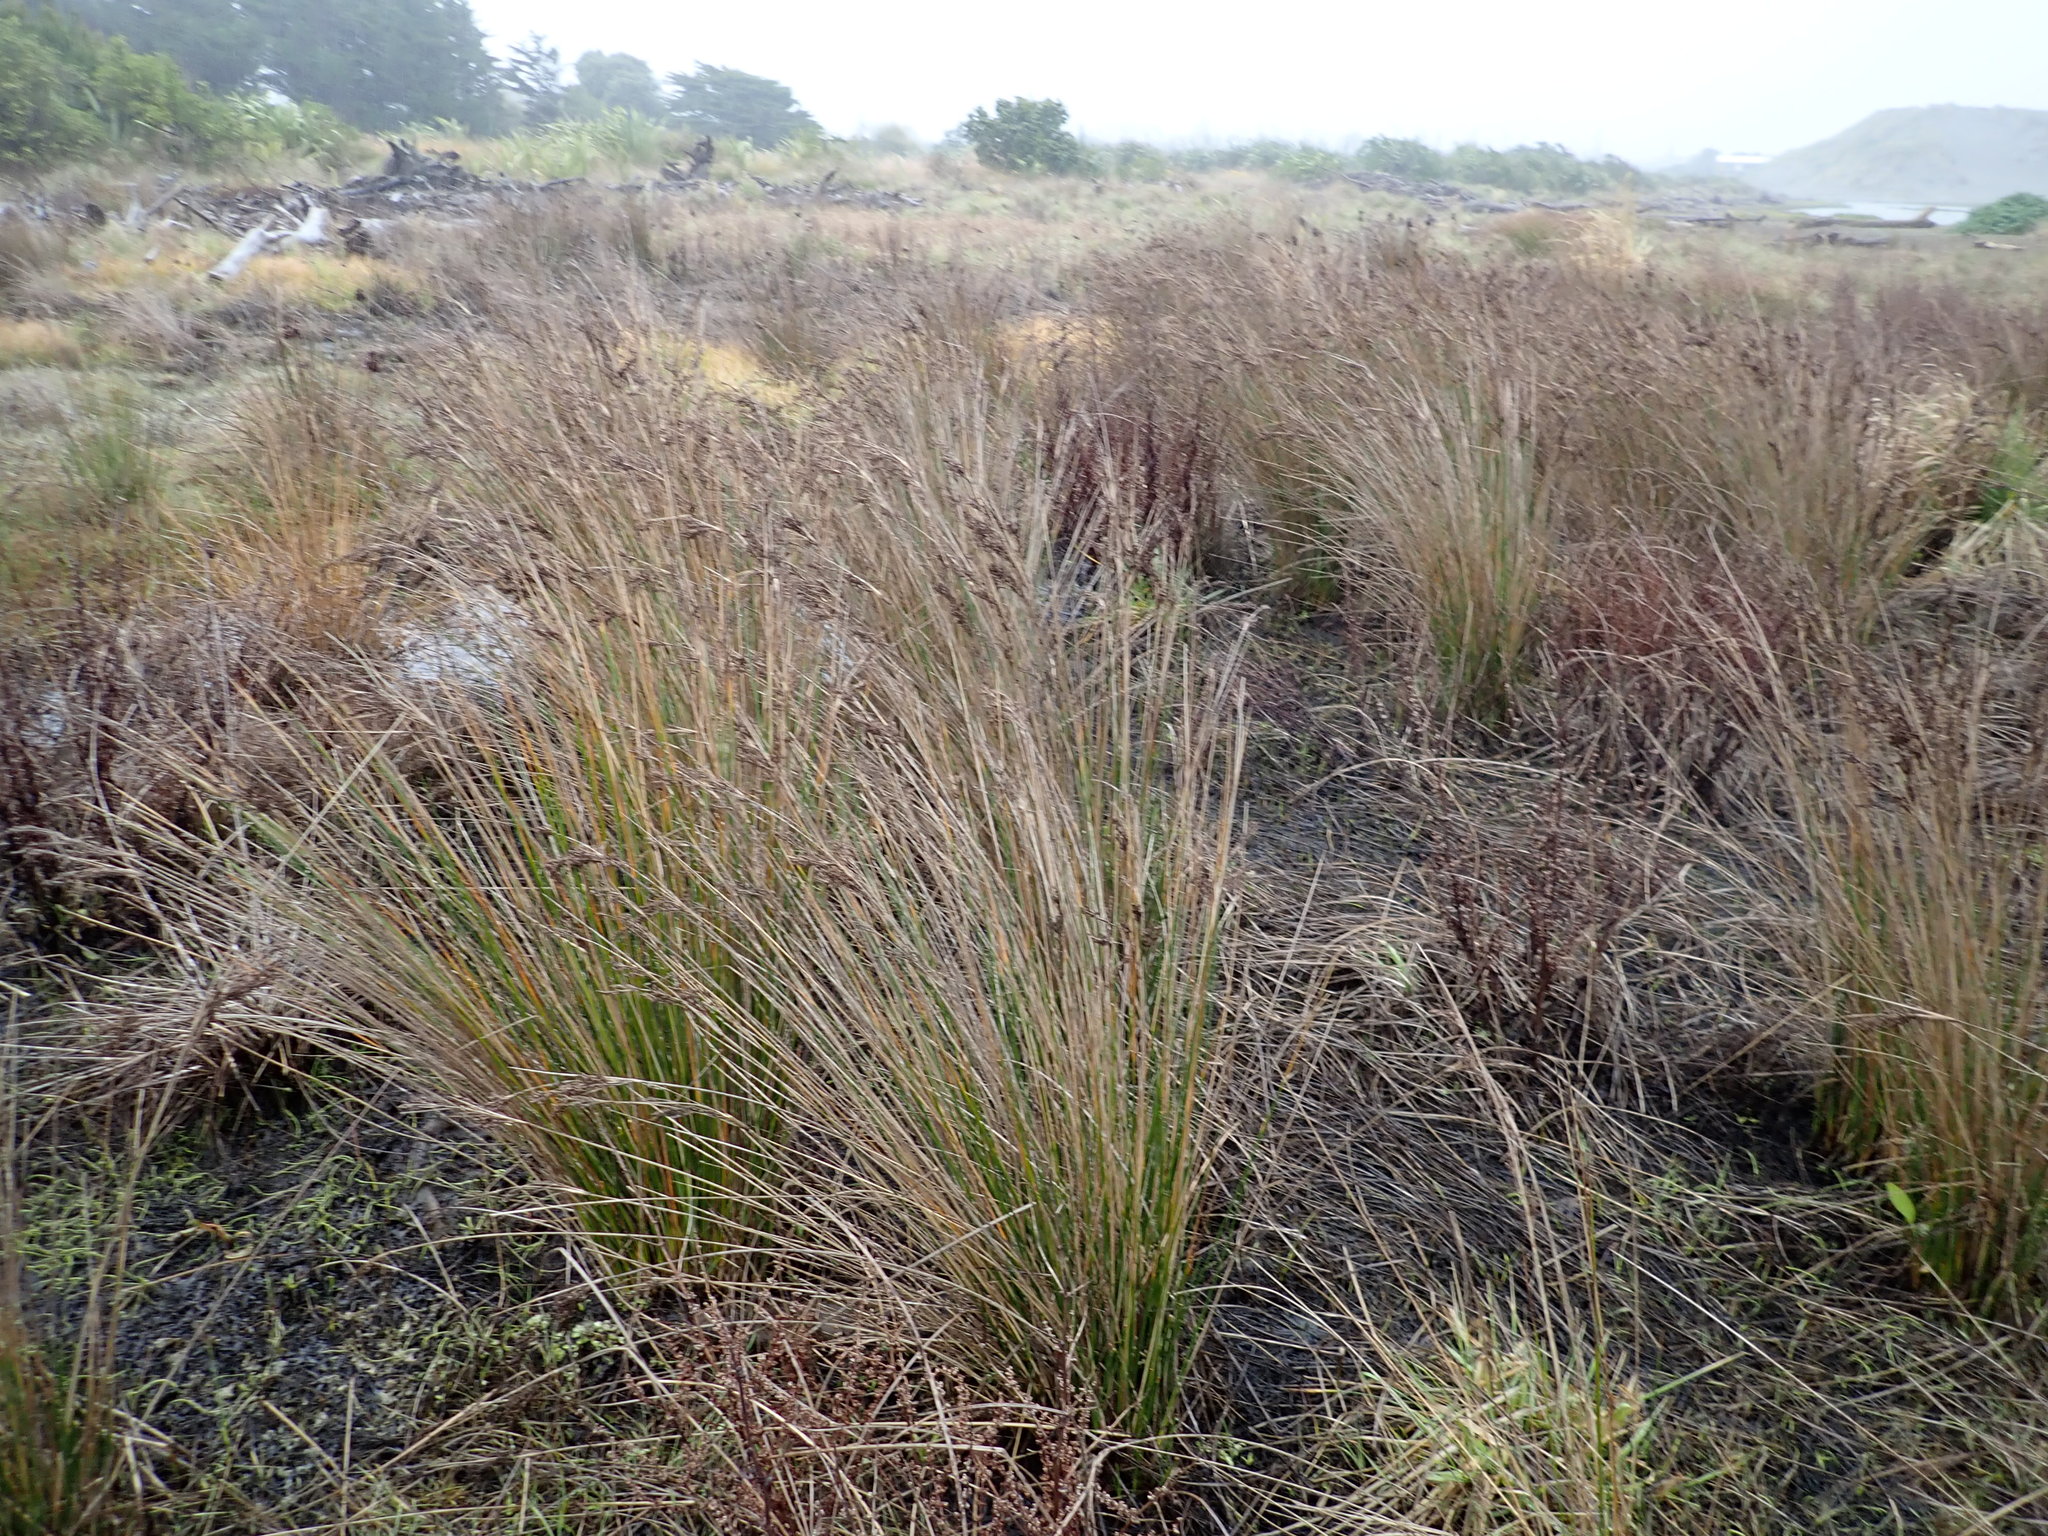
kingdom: Plantae
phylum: Tracheophyta
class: Liliopsida
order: Poales
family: Juncaceae
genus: Juncus
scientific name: Juncus kraussii
